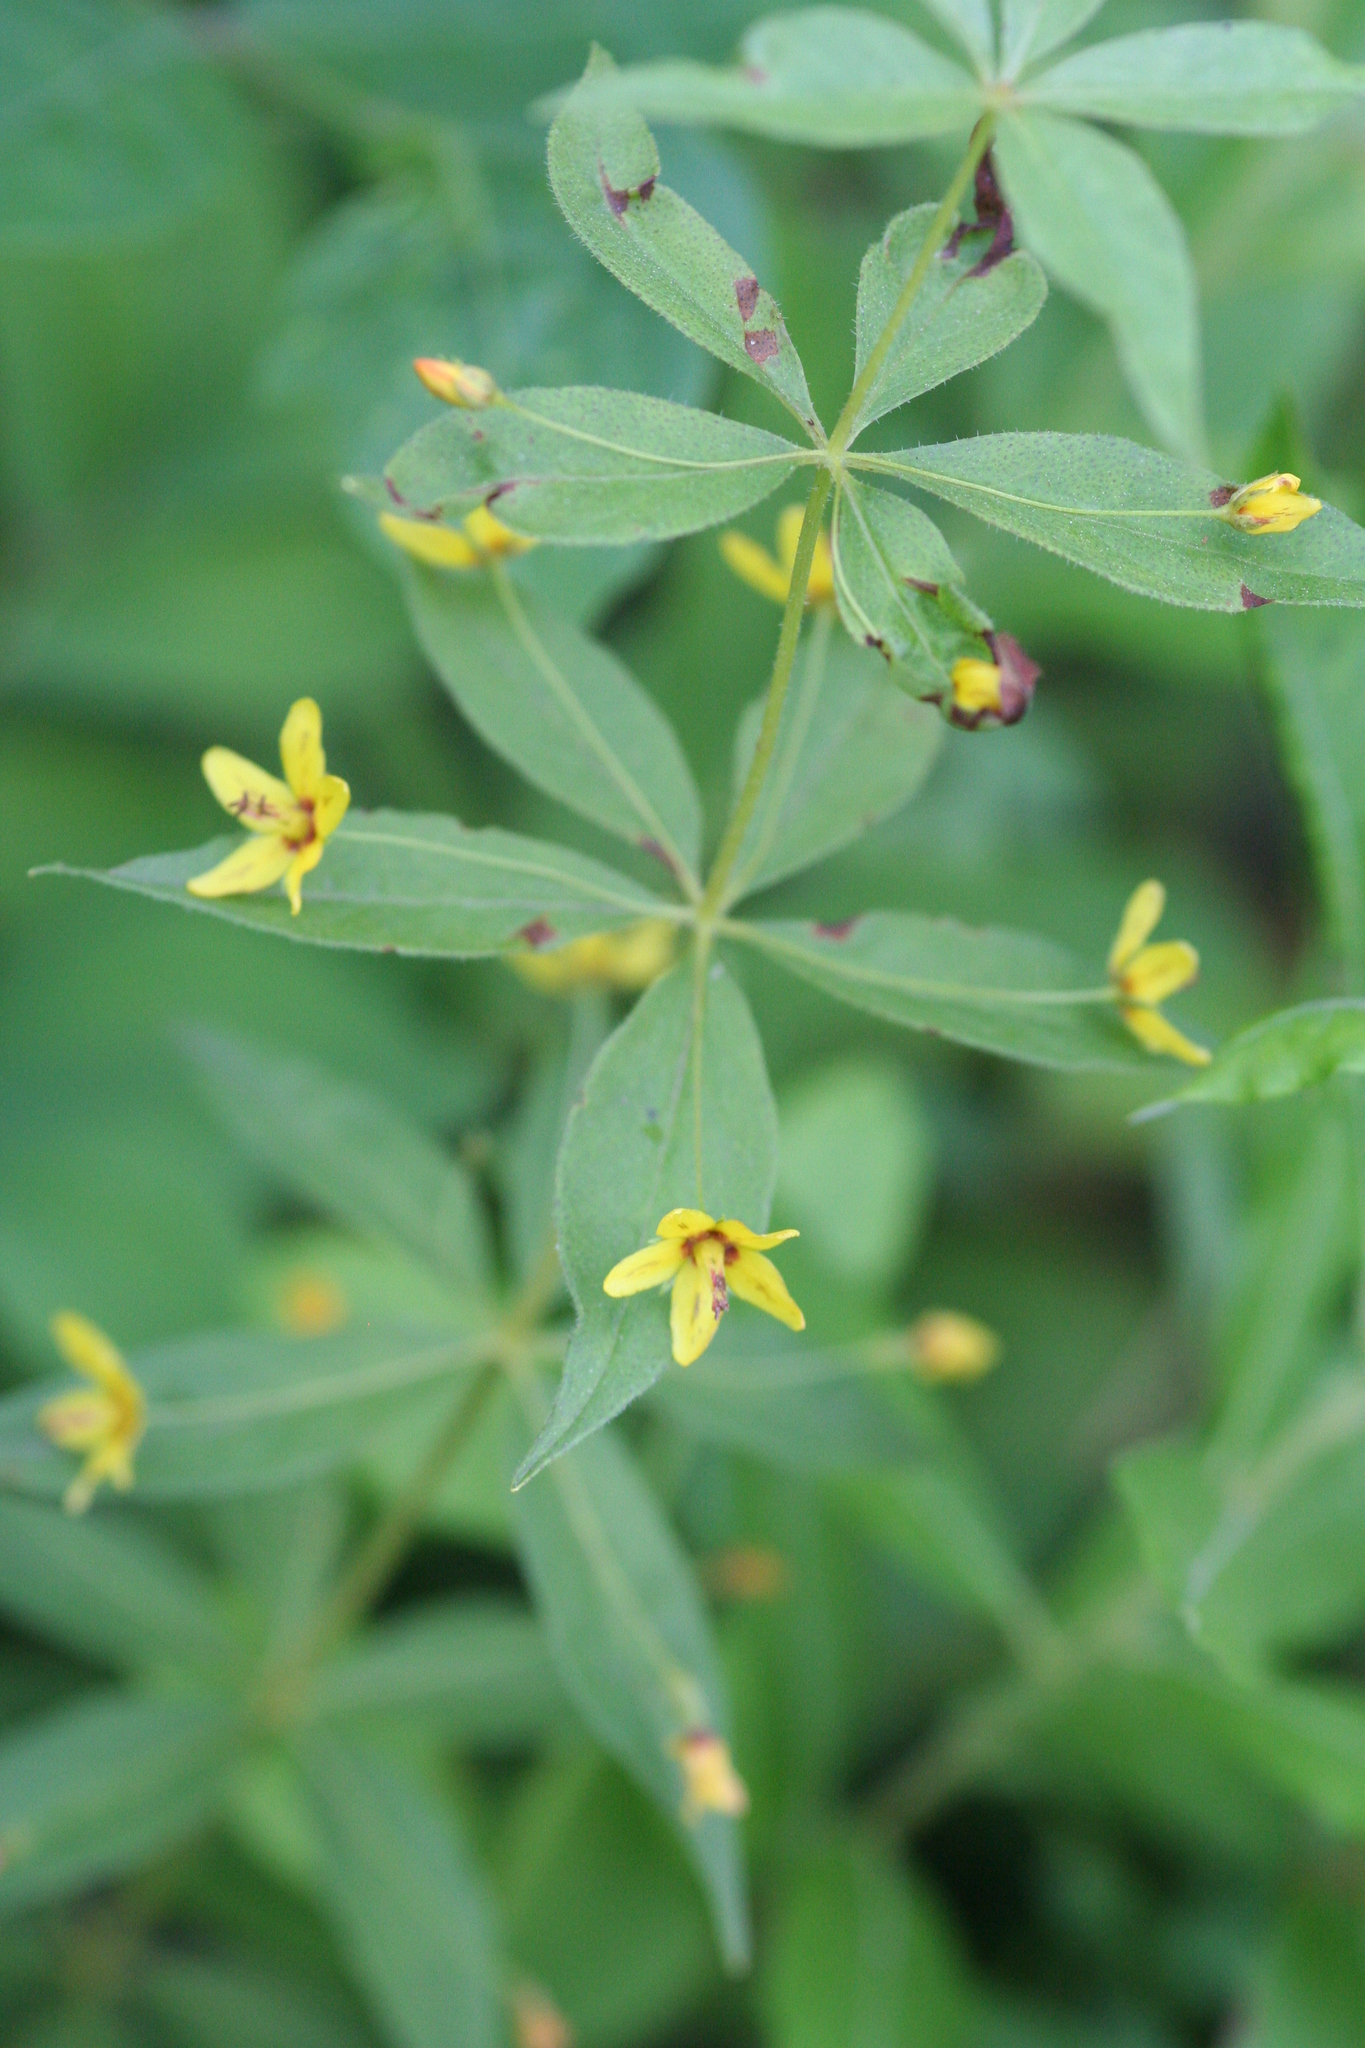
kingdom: Plantae
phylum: Tracheophyta
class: Magnoliopsida
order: Ericales
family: Primulaceae
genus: Lysimachia
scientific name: Lysimachia quadrifolia
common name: Whorled loosestrife
